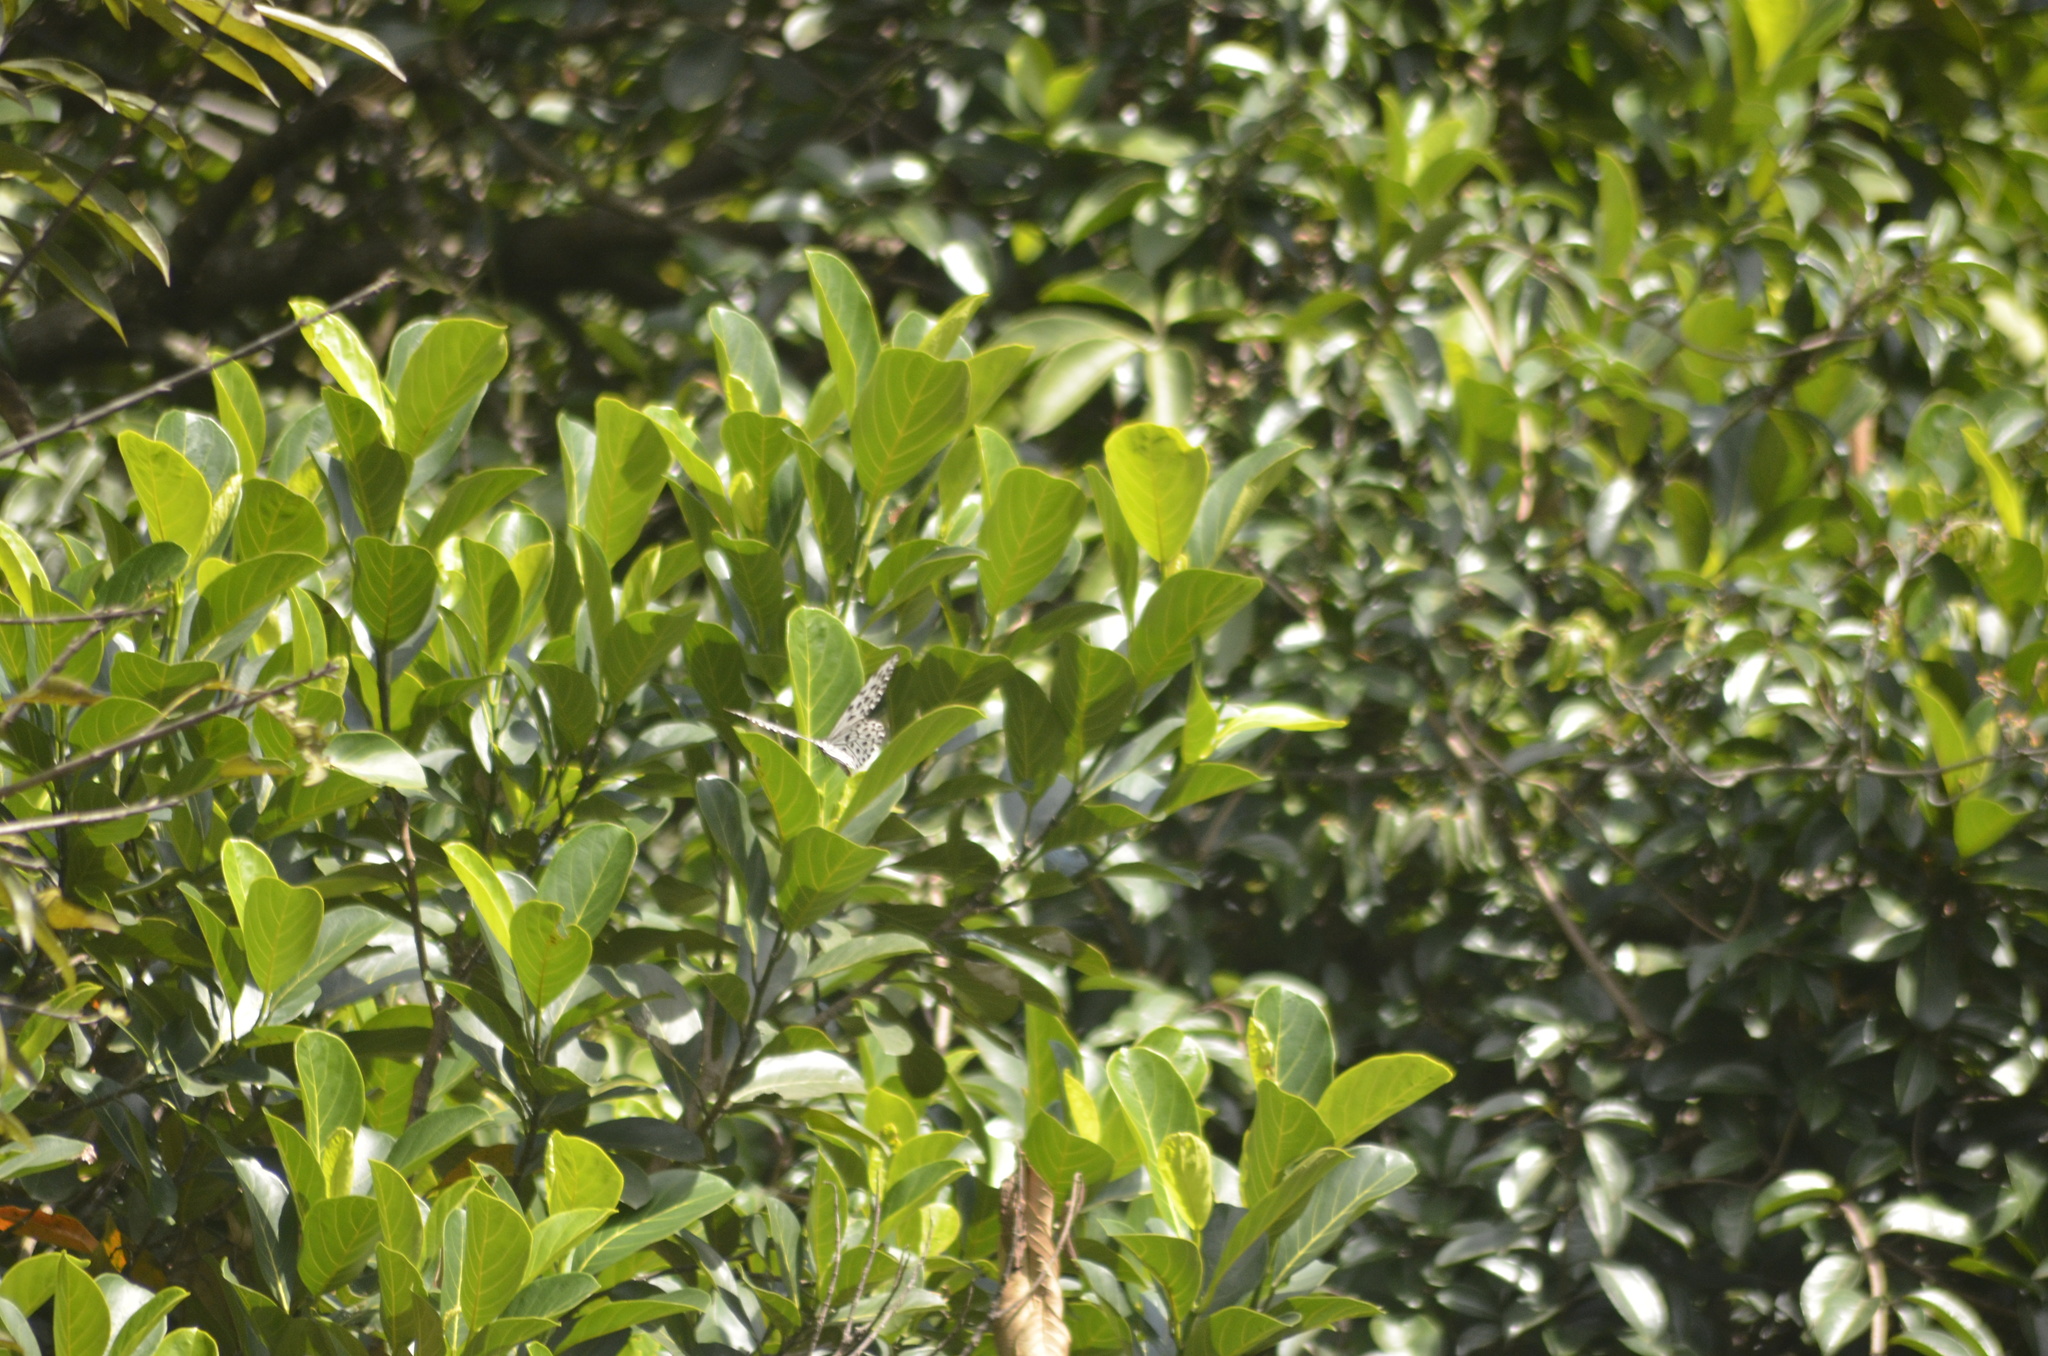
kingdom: Animalia
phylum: Arthropoda
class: Insecta
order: Lepidoptera
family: Nymphalidae
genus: Idea
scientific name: Idea malabarica
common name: Malabar tree-nymph
